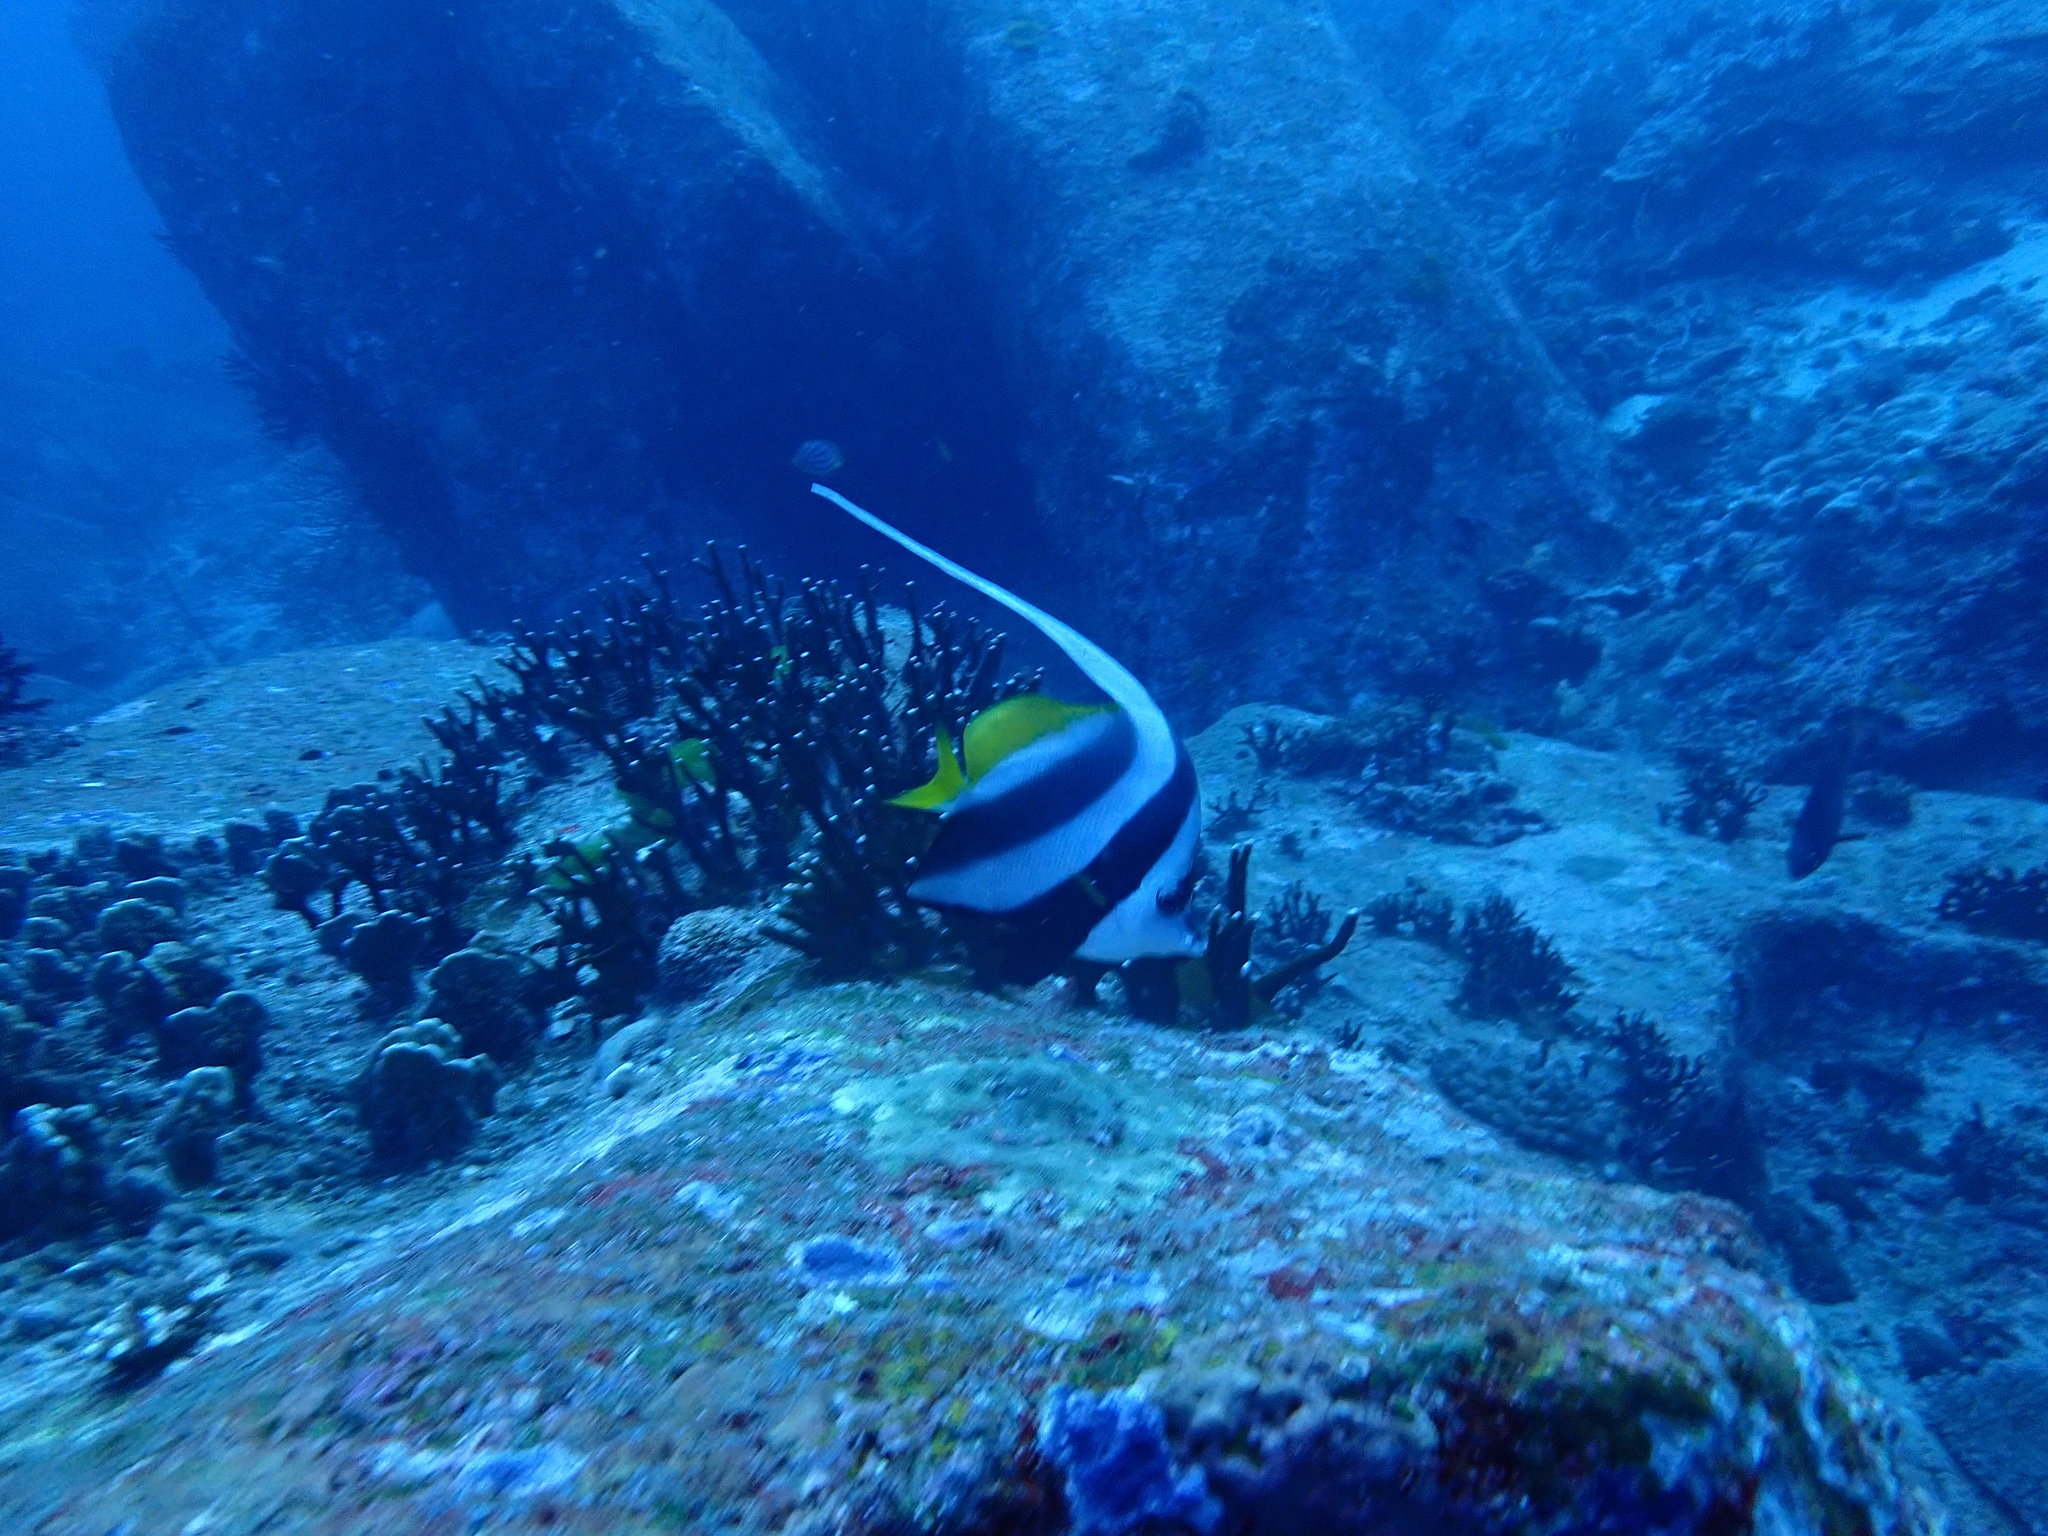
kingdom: Animalia
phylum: Chordata
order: Perciformes
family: Chaetodontidae
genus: Heniochus
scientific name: Heniochus acuminatus
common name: Pennant coralfish
